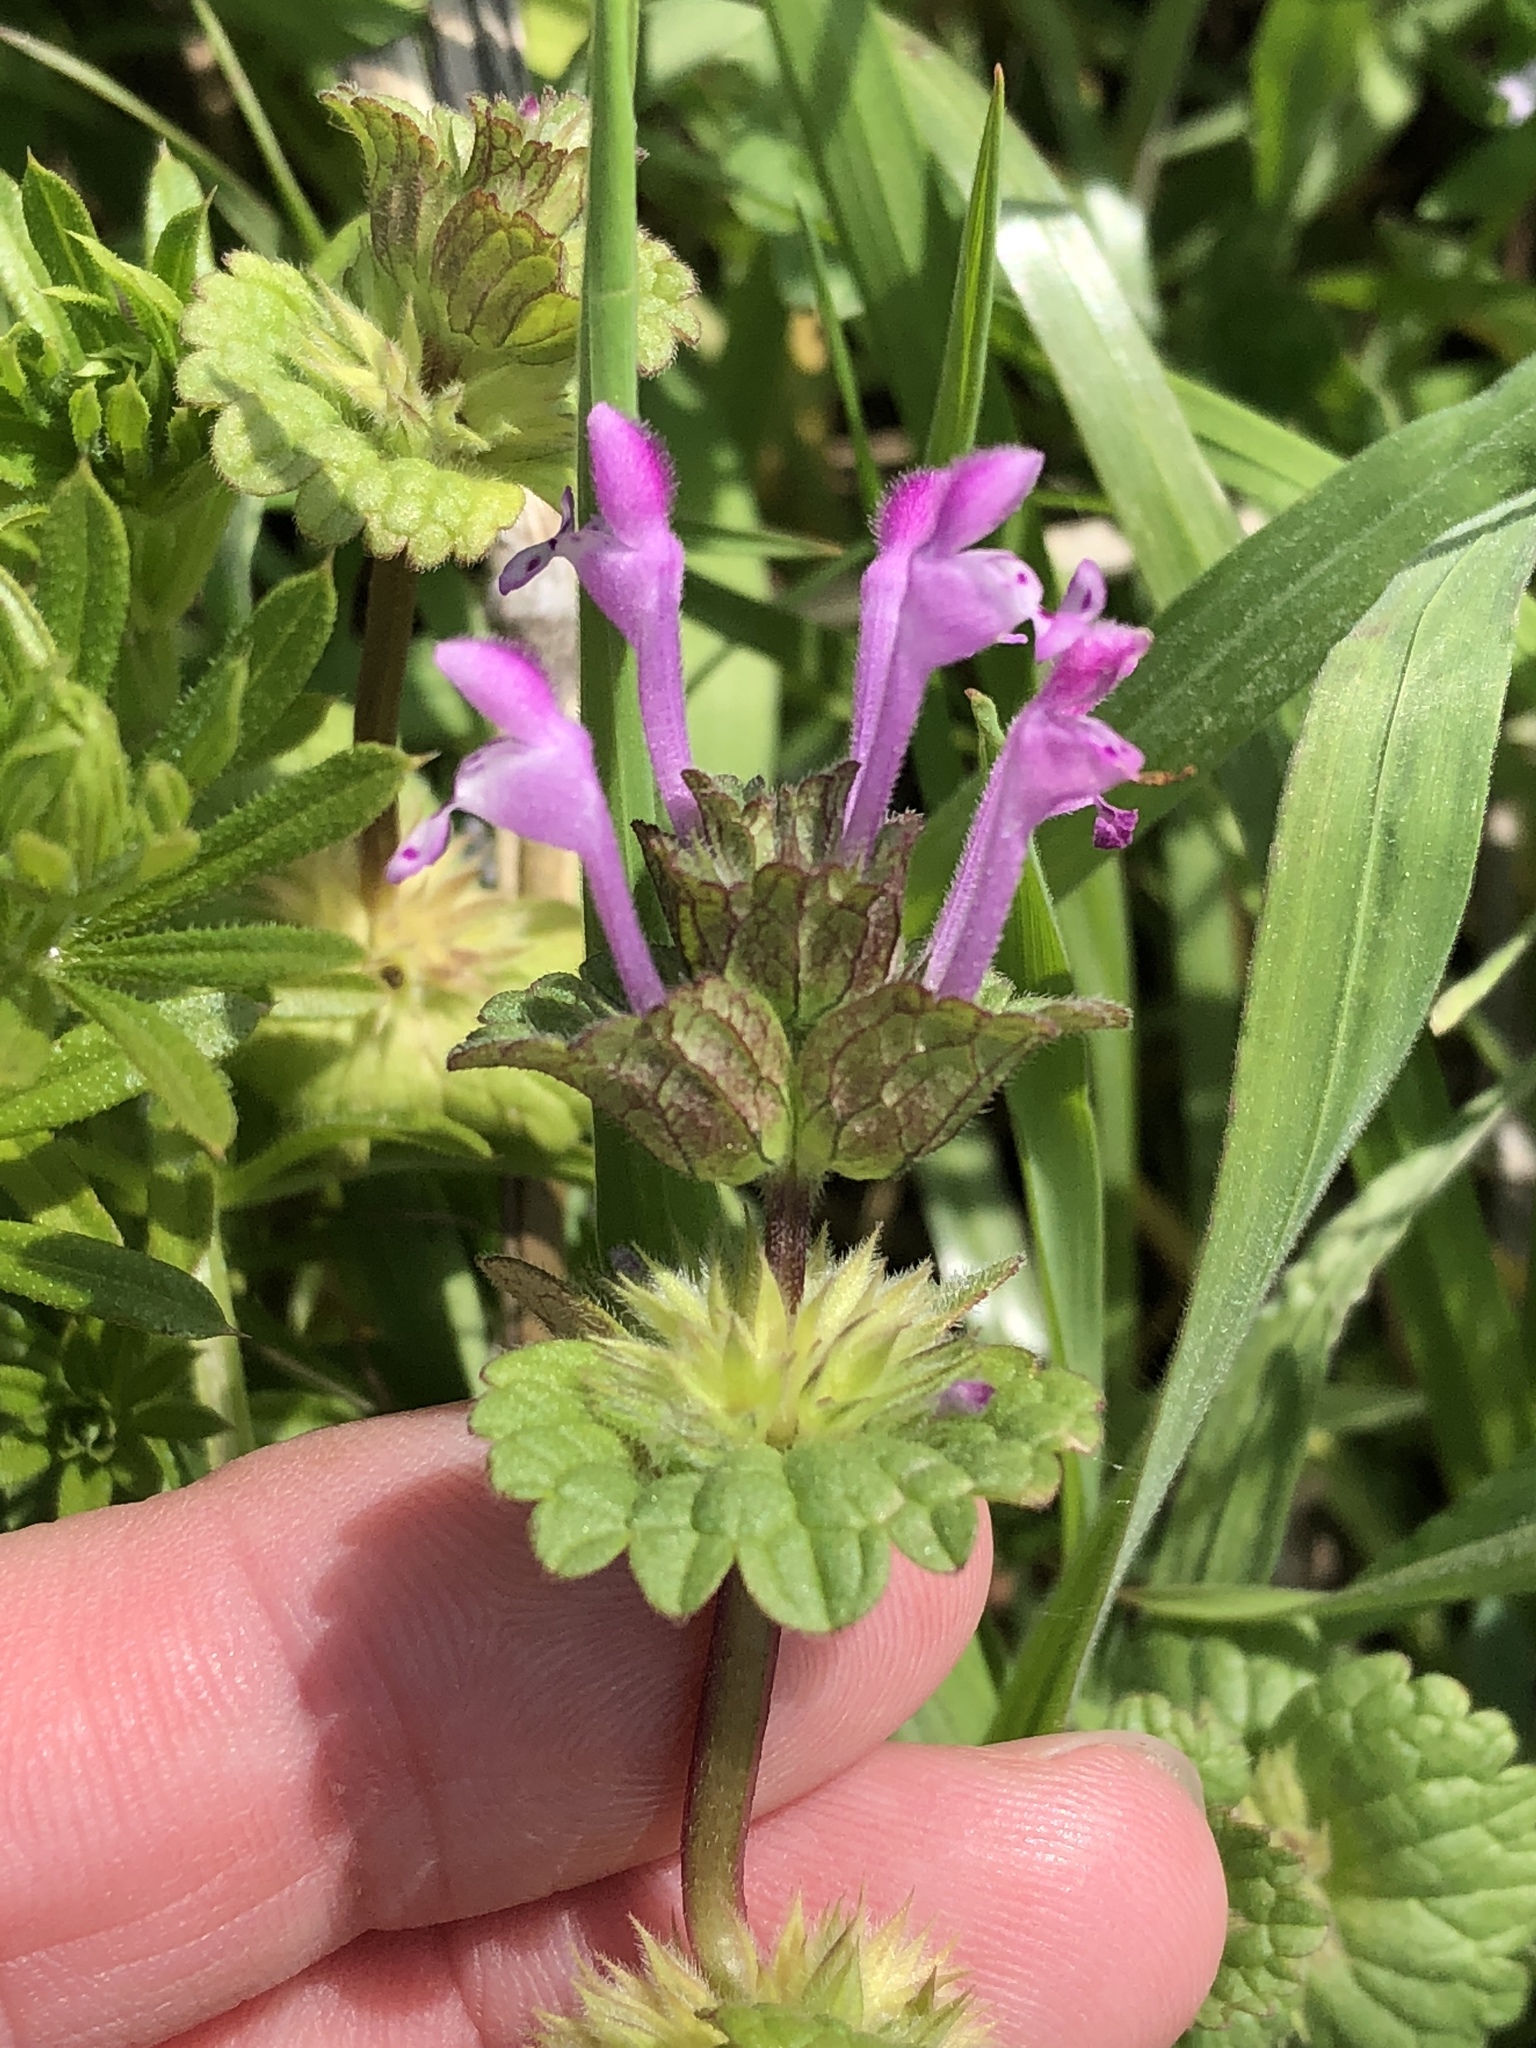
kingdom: Plantae
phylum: Tracheophyta
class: Magnoliopsida
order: Lamiales
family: Lamiaceae
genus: Lamium
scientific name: Lamium amplexicaule
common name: Henbit dead-nettle
